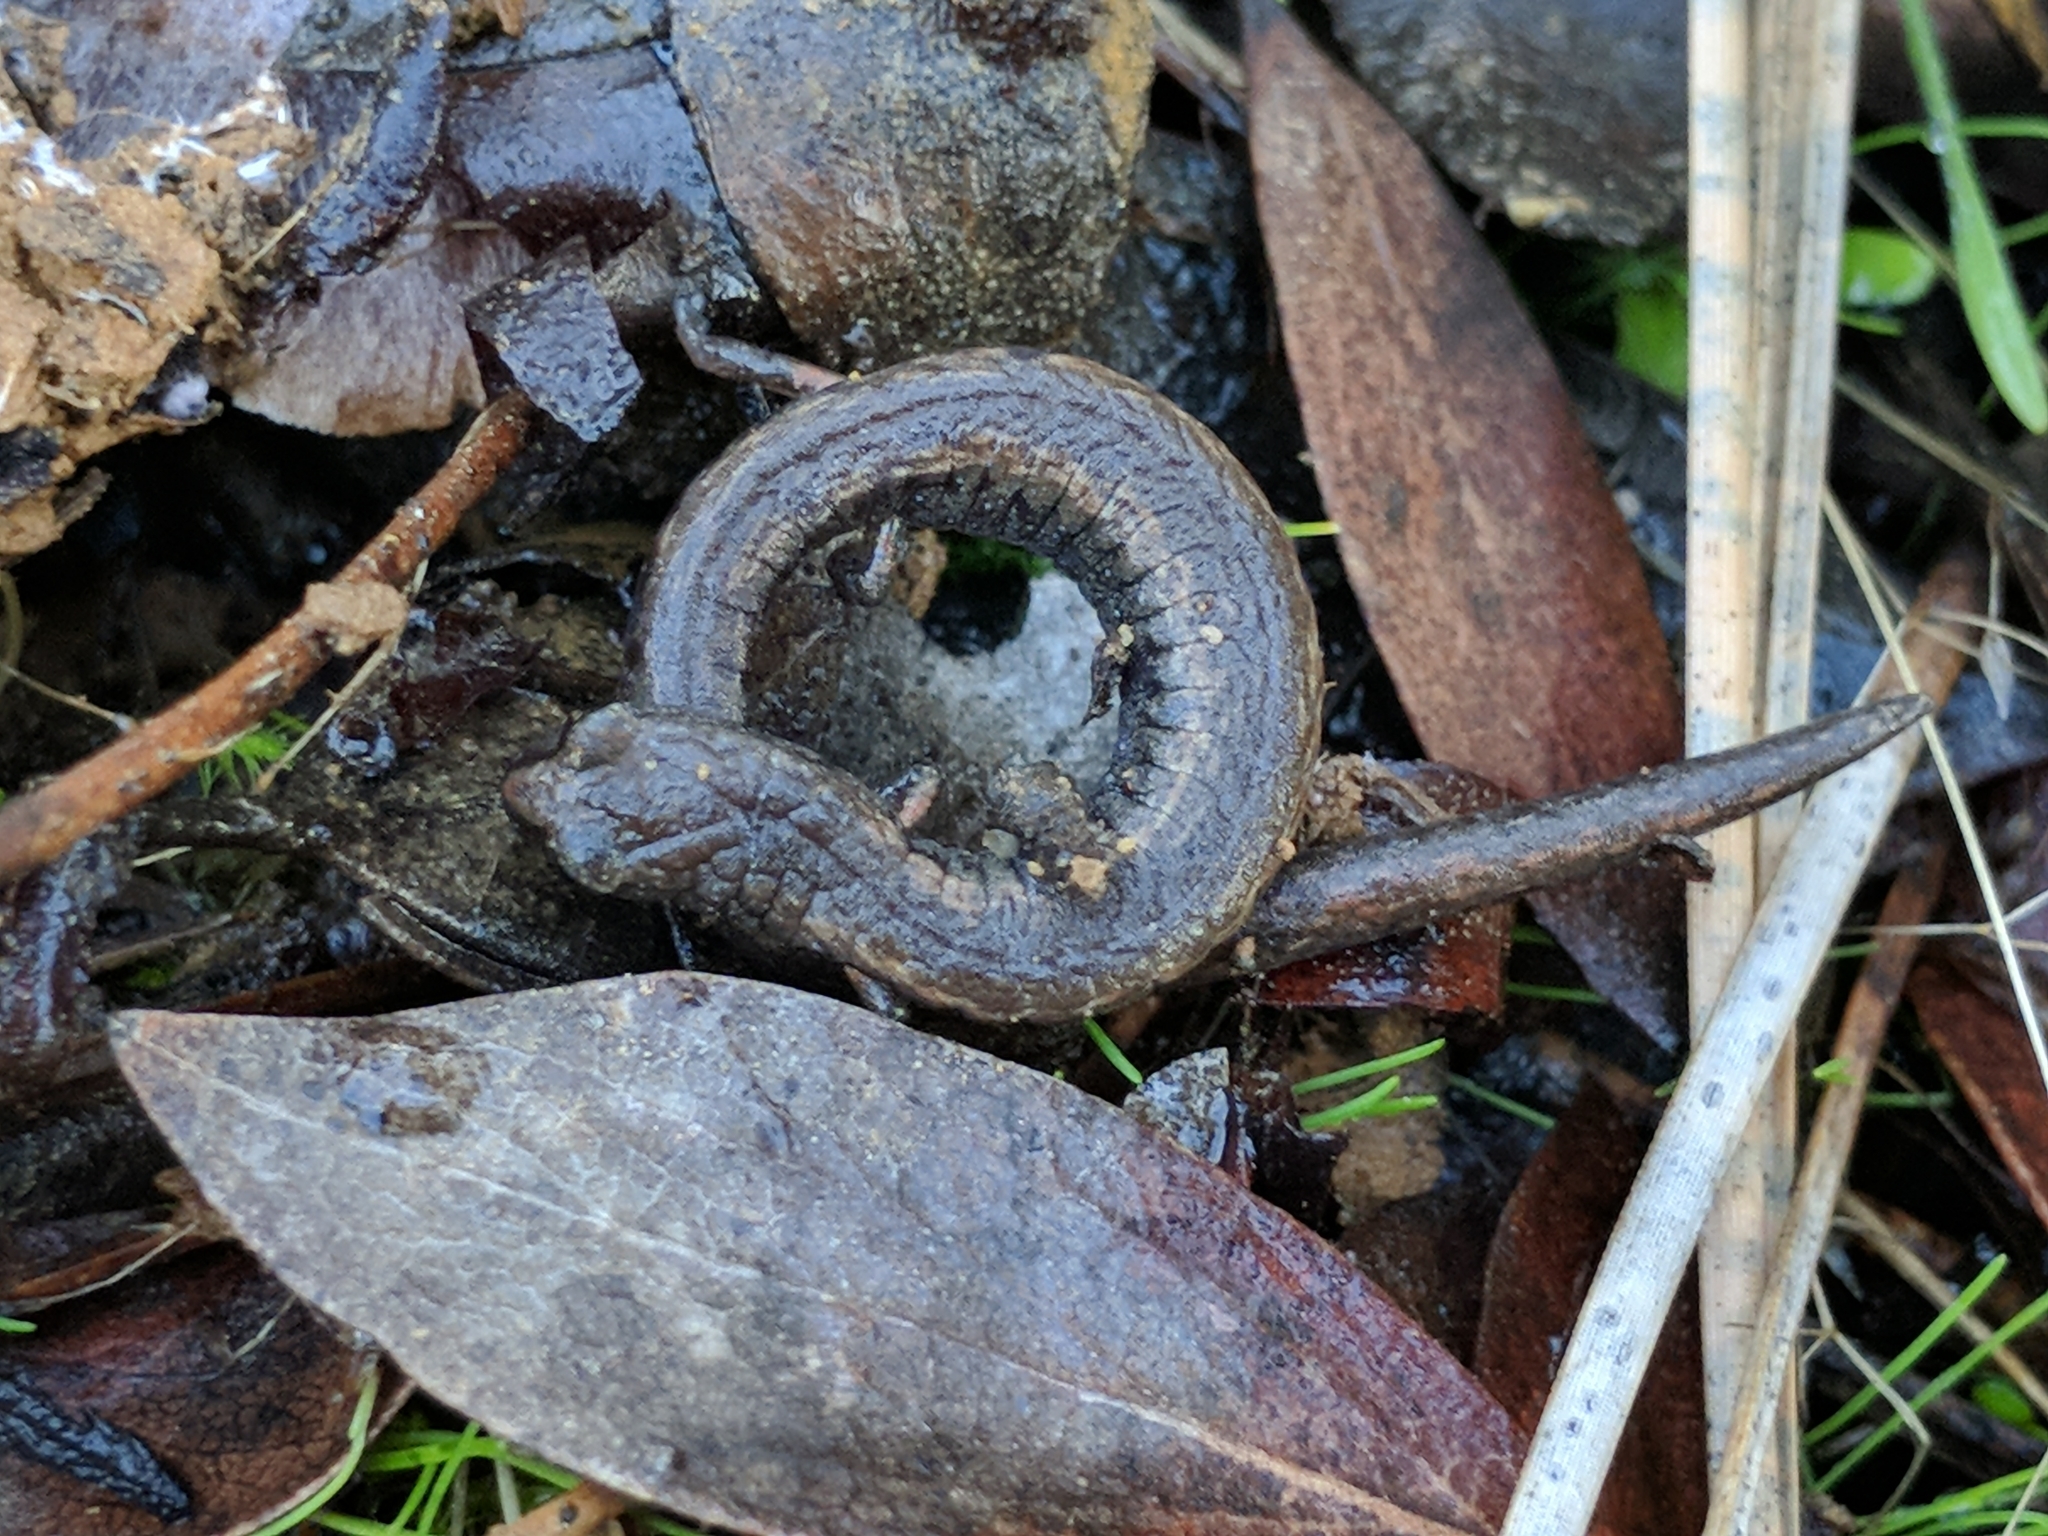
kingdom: Animalia
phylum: Chordata
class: Amphibia
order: Caudata
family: Plethodontidae
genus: Batrachoseps
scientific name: Batrachoseps attenuatus
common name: California slender salamander
